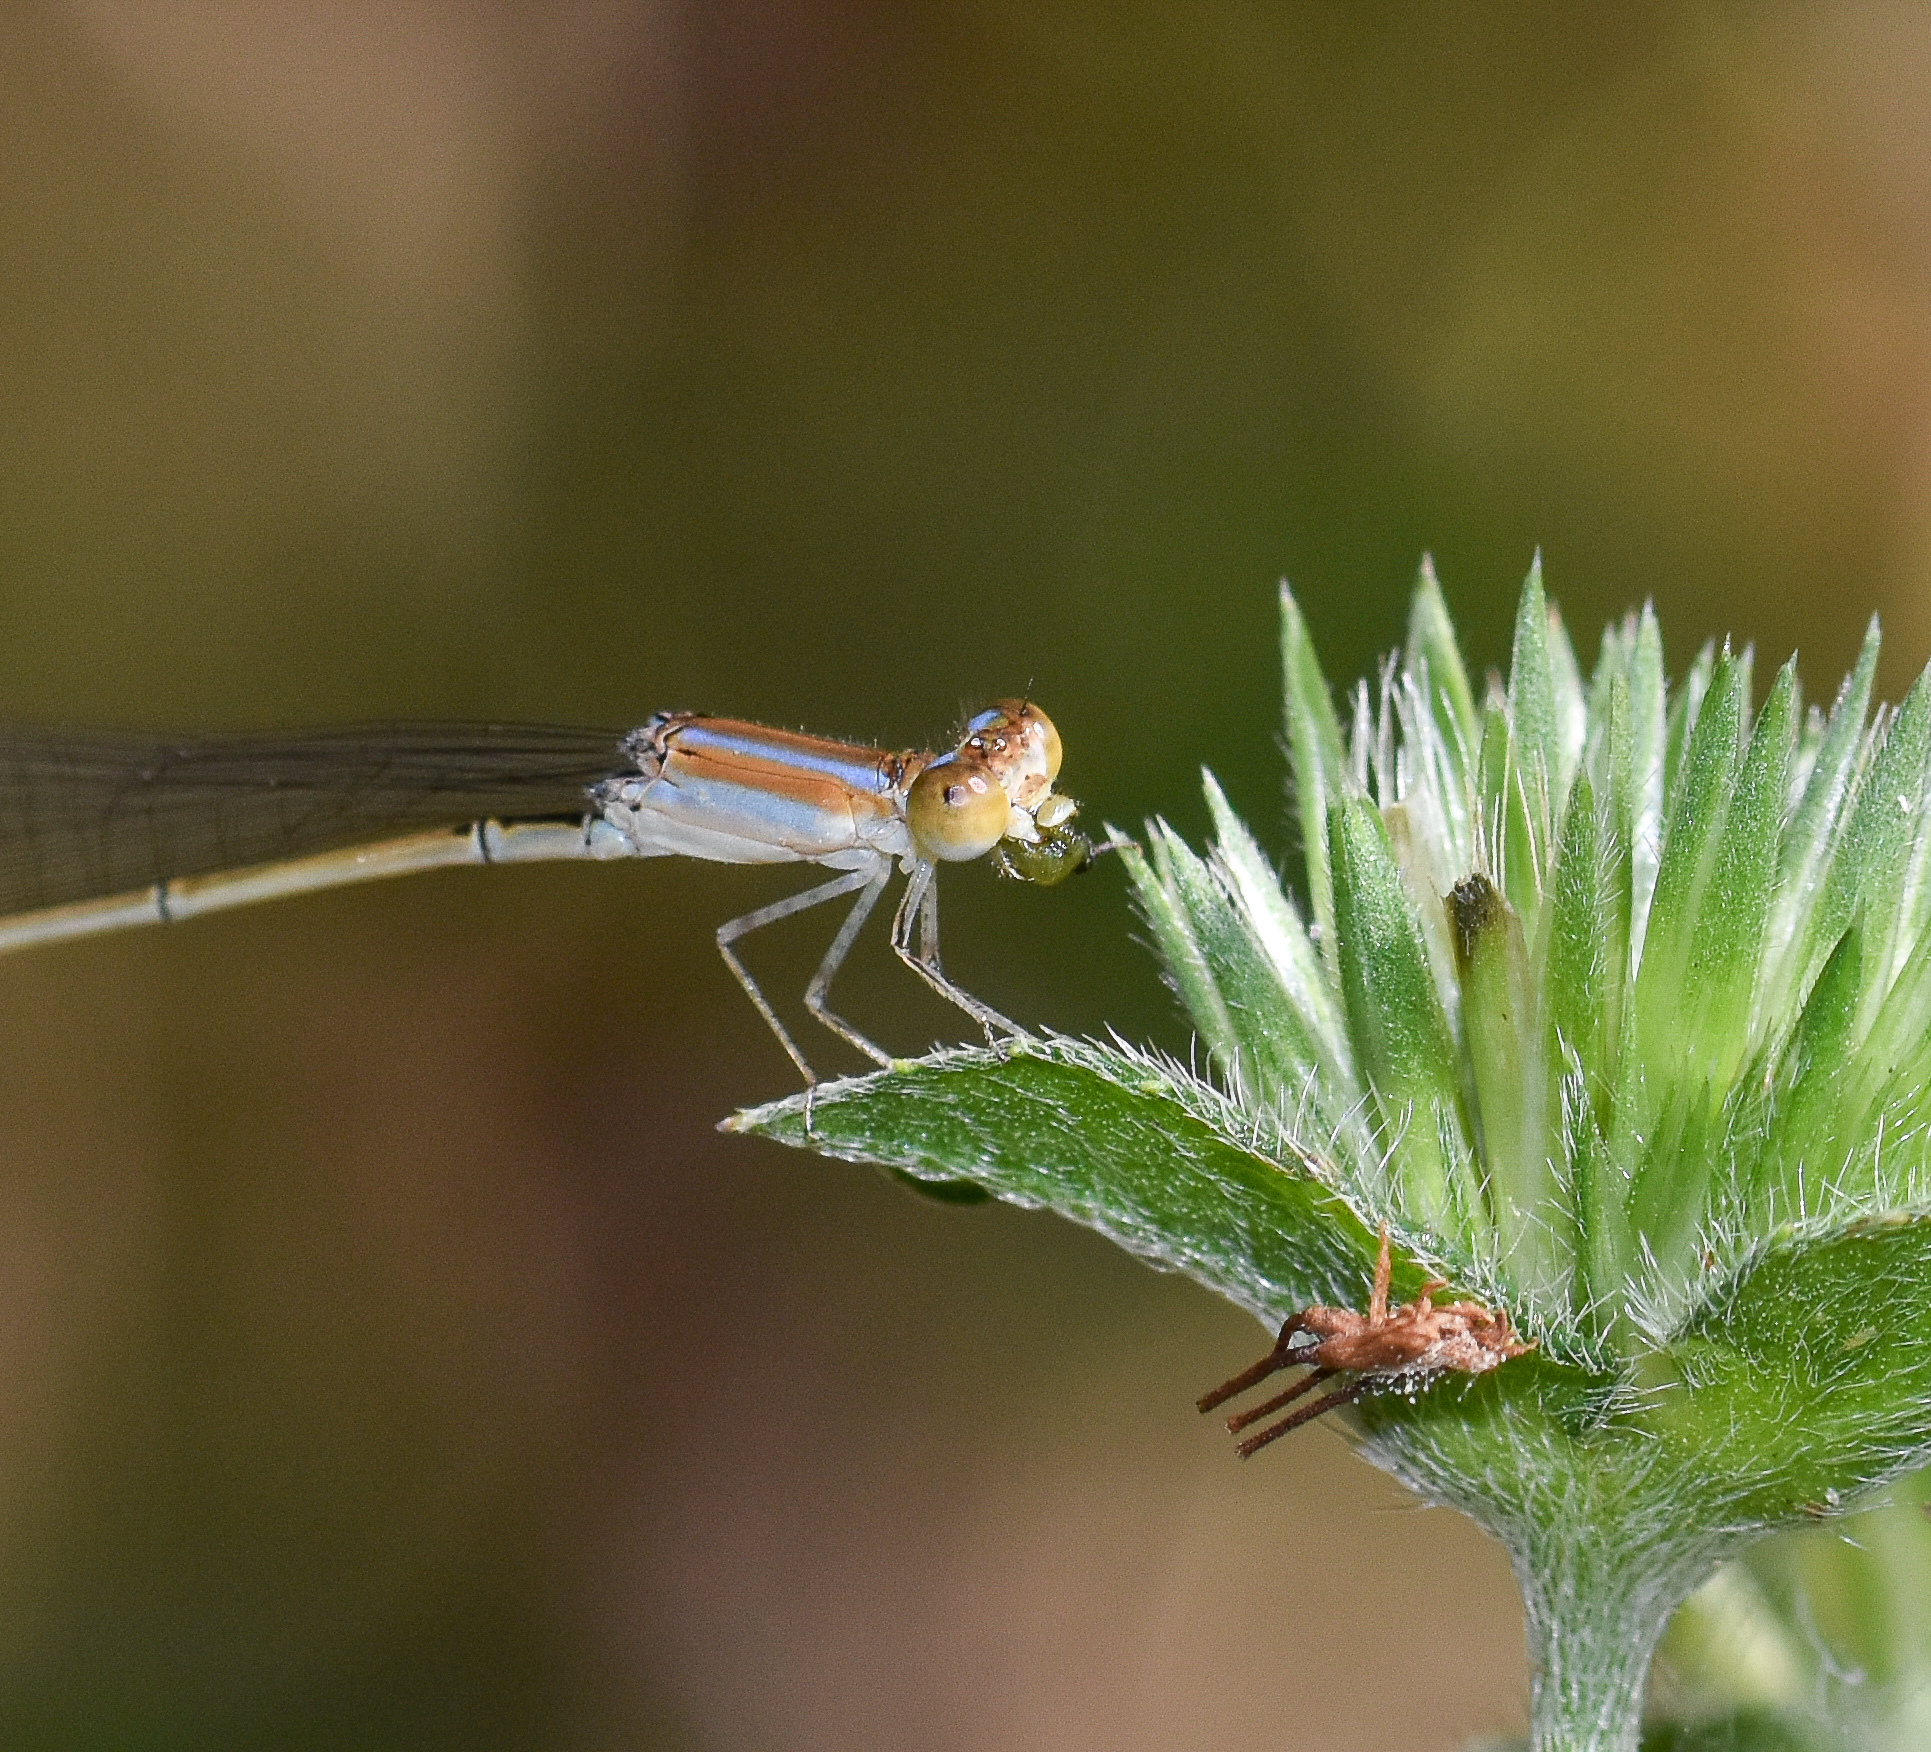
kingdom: Animalia
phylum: Arthropoda
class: Insecta
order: Odonata
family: Coenagrionidae
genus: Aciagrion
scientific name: Aciagrion pallidum
